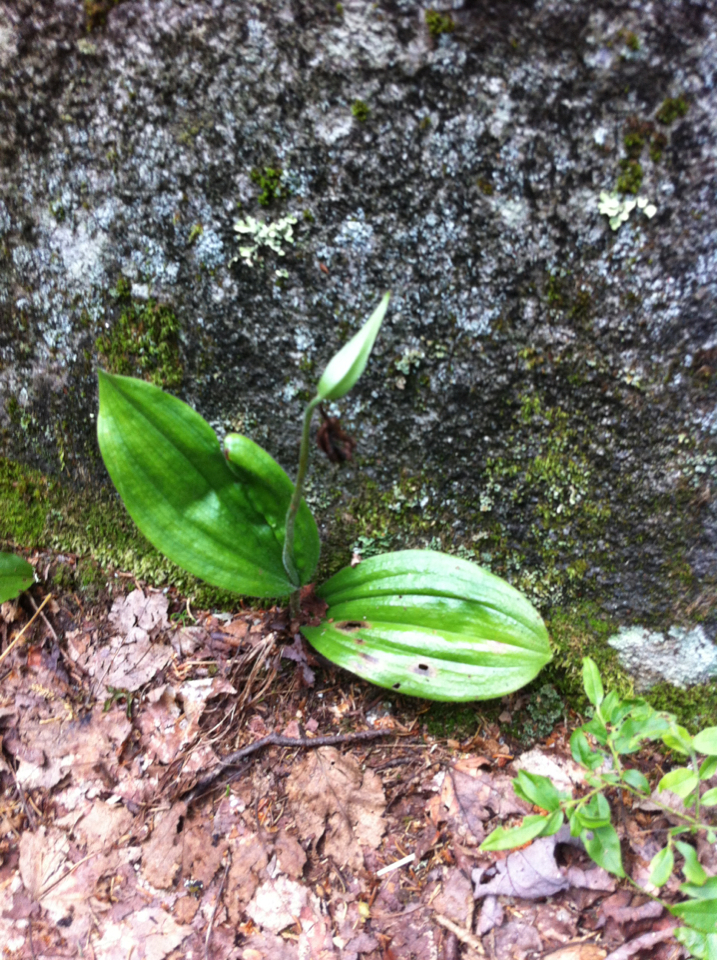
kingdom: Plantae
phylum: Tracheophyta
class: Liliopsida
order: Asparagales
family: Orchidaceae
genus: Cypripedium
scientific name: Cypripedium acaule
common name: Pink lady's-slipper
